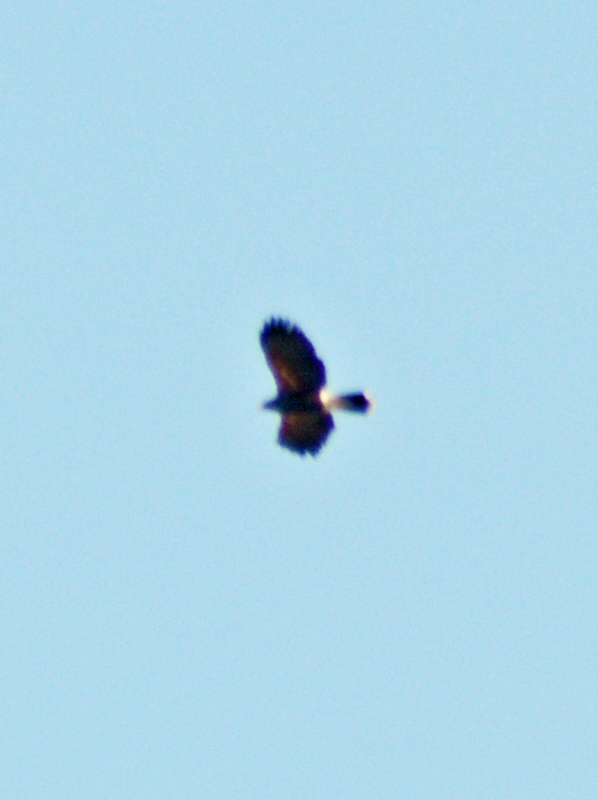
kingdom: Animalia
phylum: Chordata
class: Aves
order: Accipitriformes
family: Accipitridae
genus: Parabuteo
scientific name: Parabuteo unicinctus
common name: Harris's hawk
